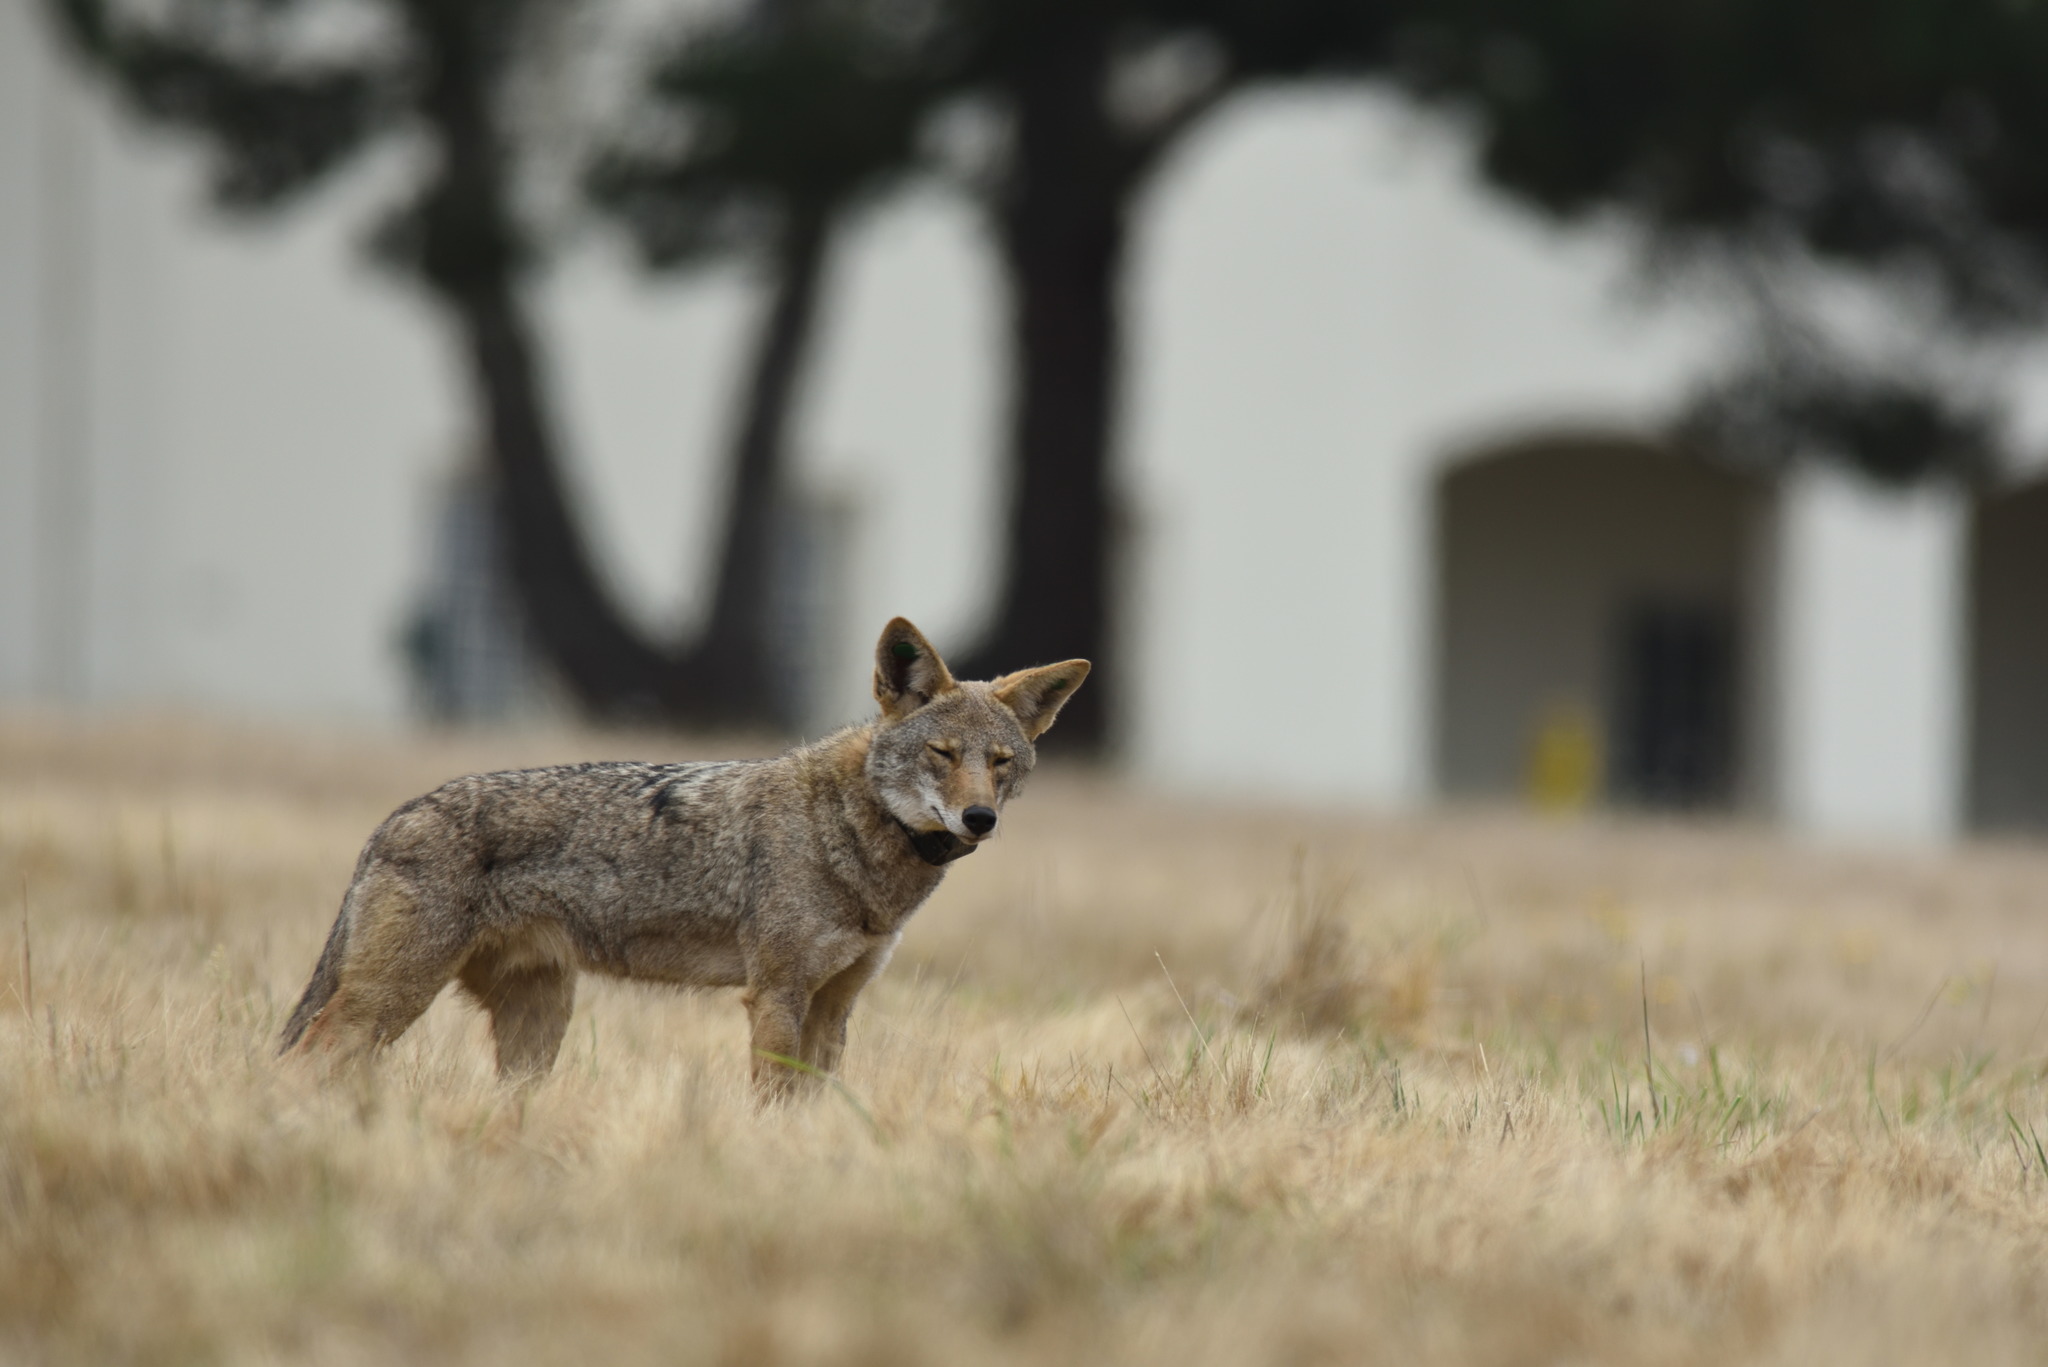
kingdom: Animalia
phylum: Chordata
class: Mammalia
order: Carnivora
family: Canidae
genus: Canis
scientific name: Canis latrans
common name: Coyote
